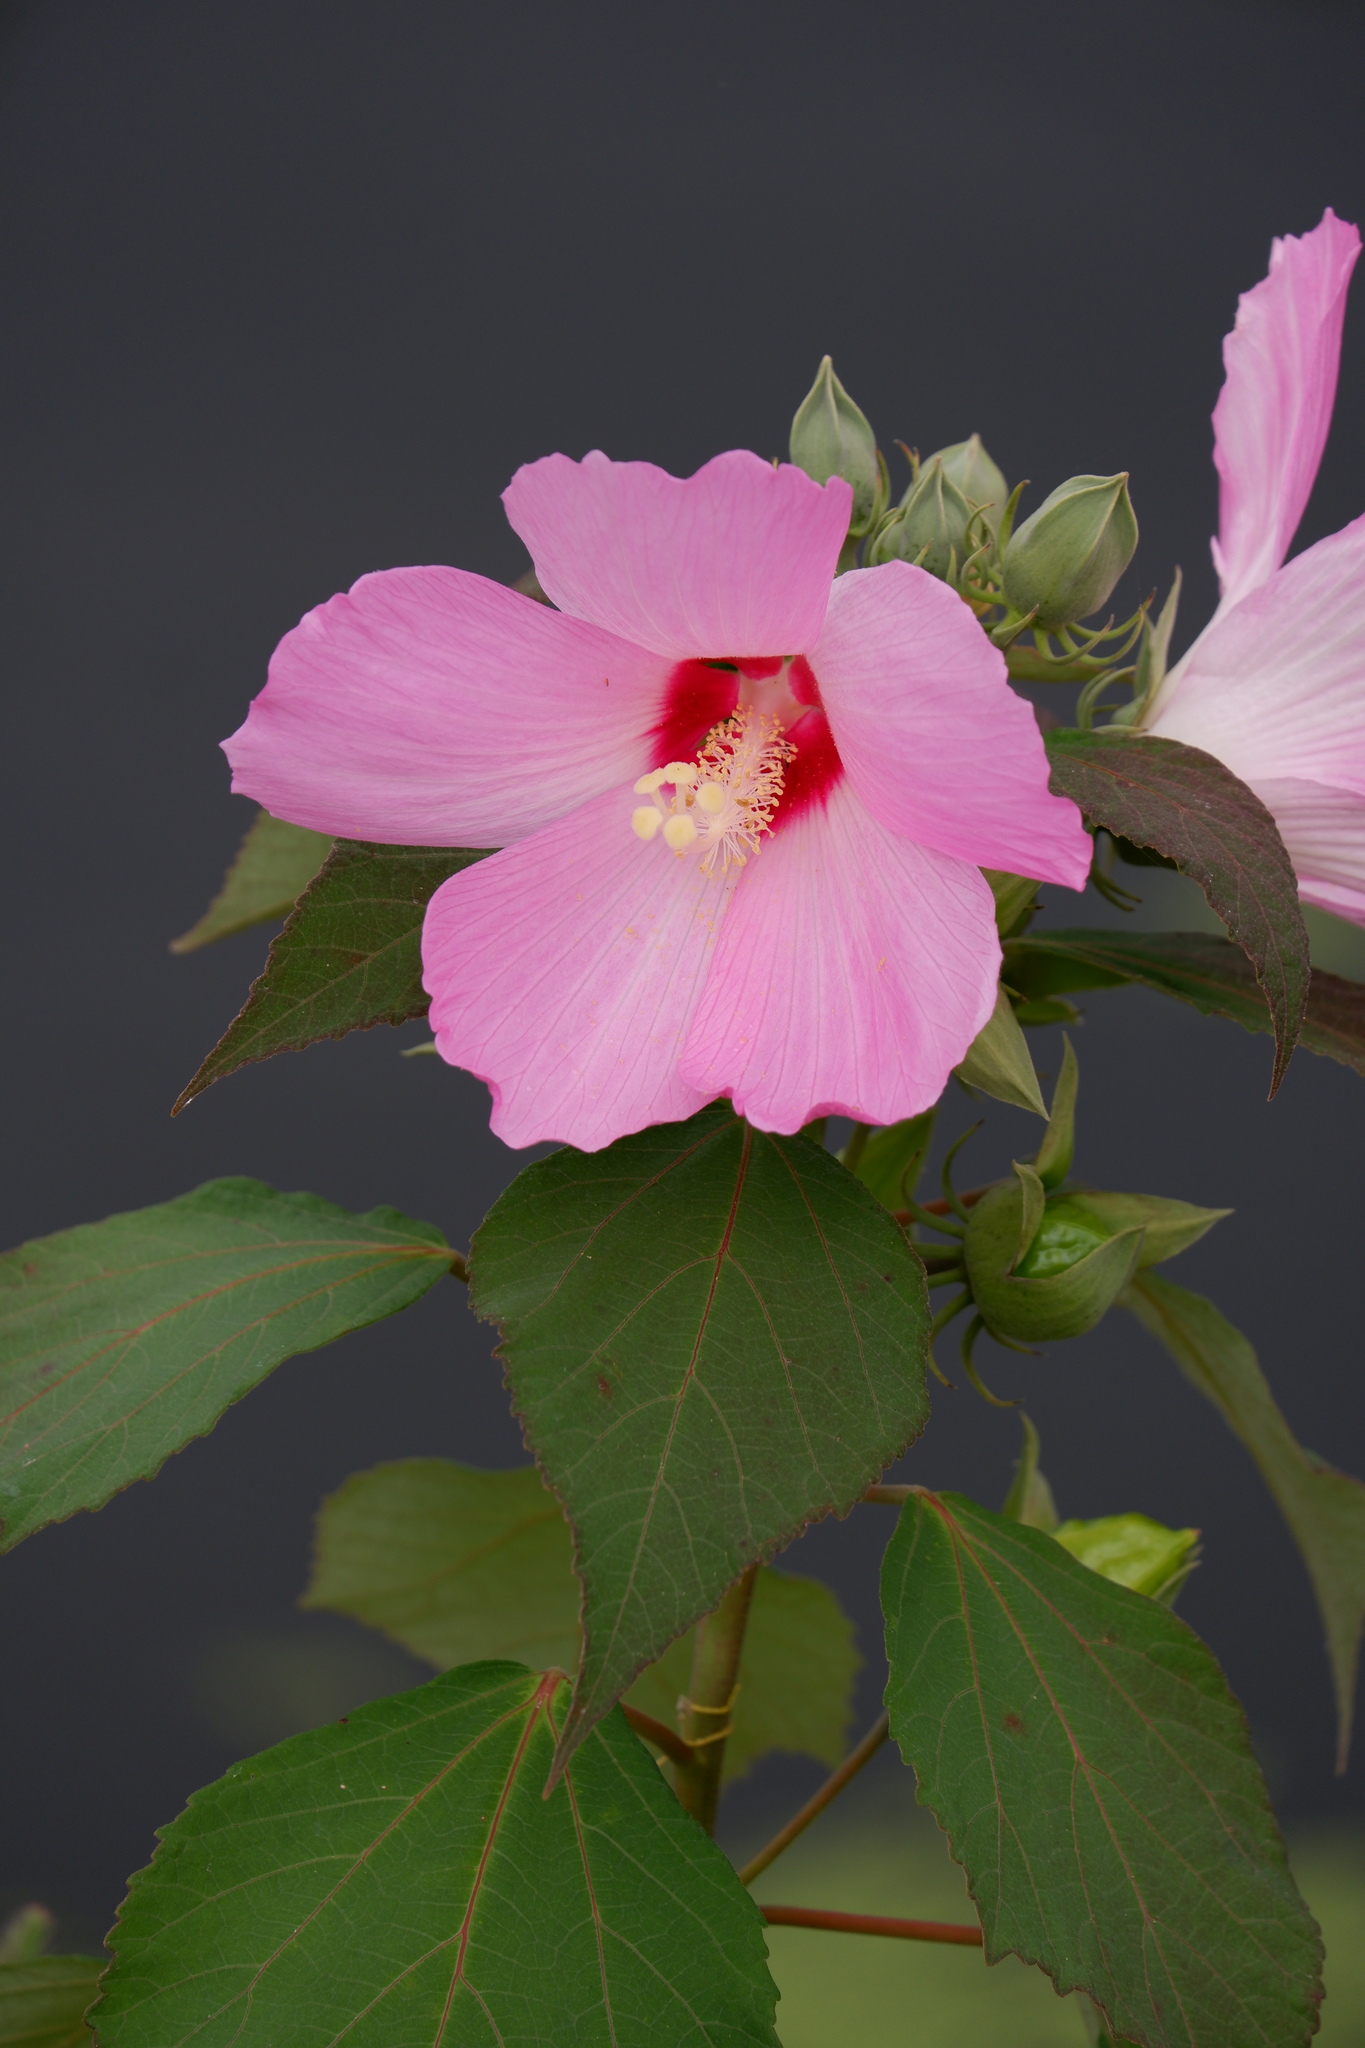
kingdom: Plantae
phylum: Tracheophyta
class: Magnoliopsida
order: Malvales
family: Malvaceae
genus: Hibiscus
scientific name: Hibiscus moscheutos
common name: Common rose-mallow
